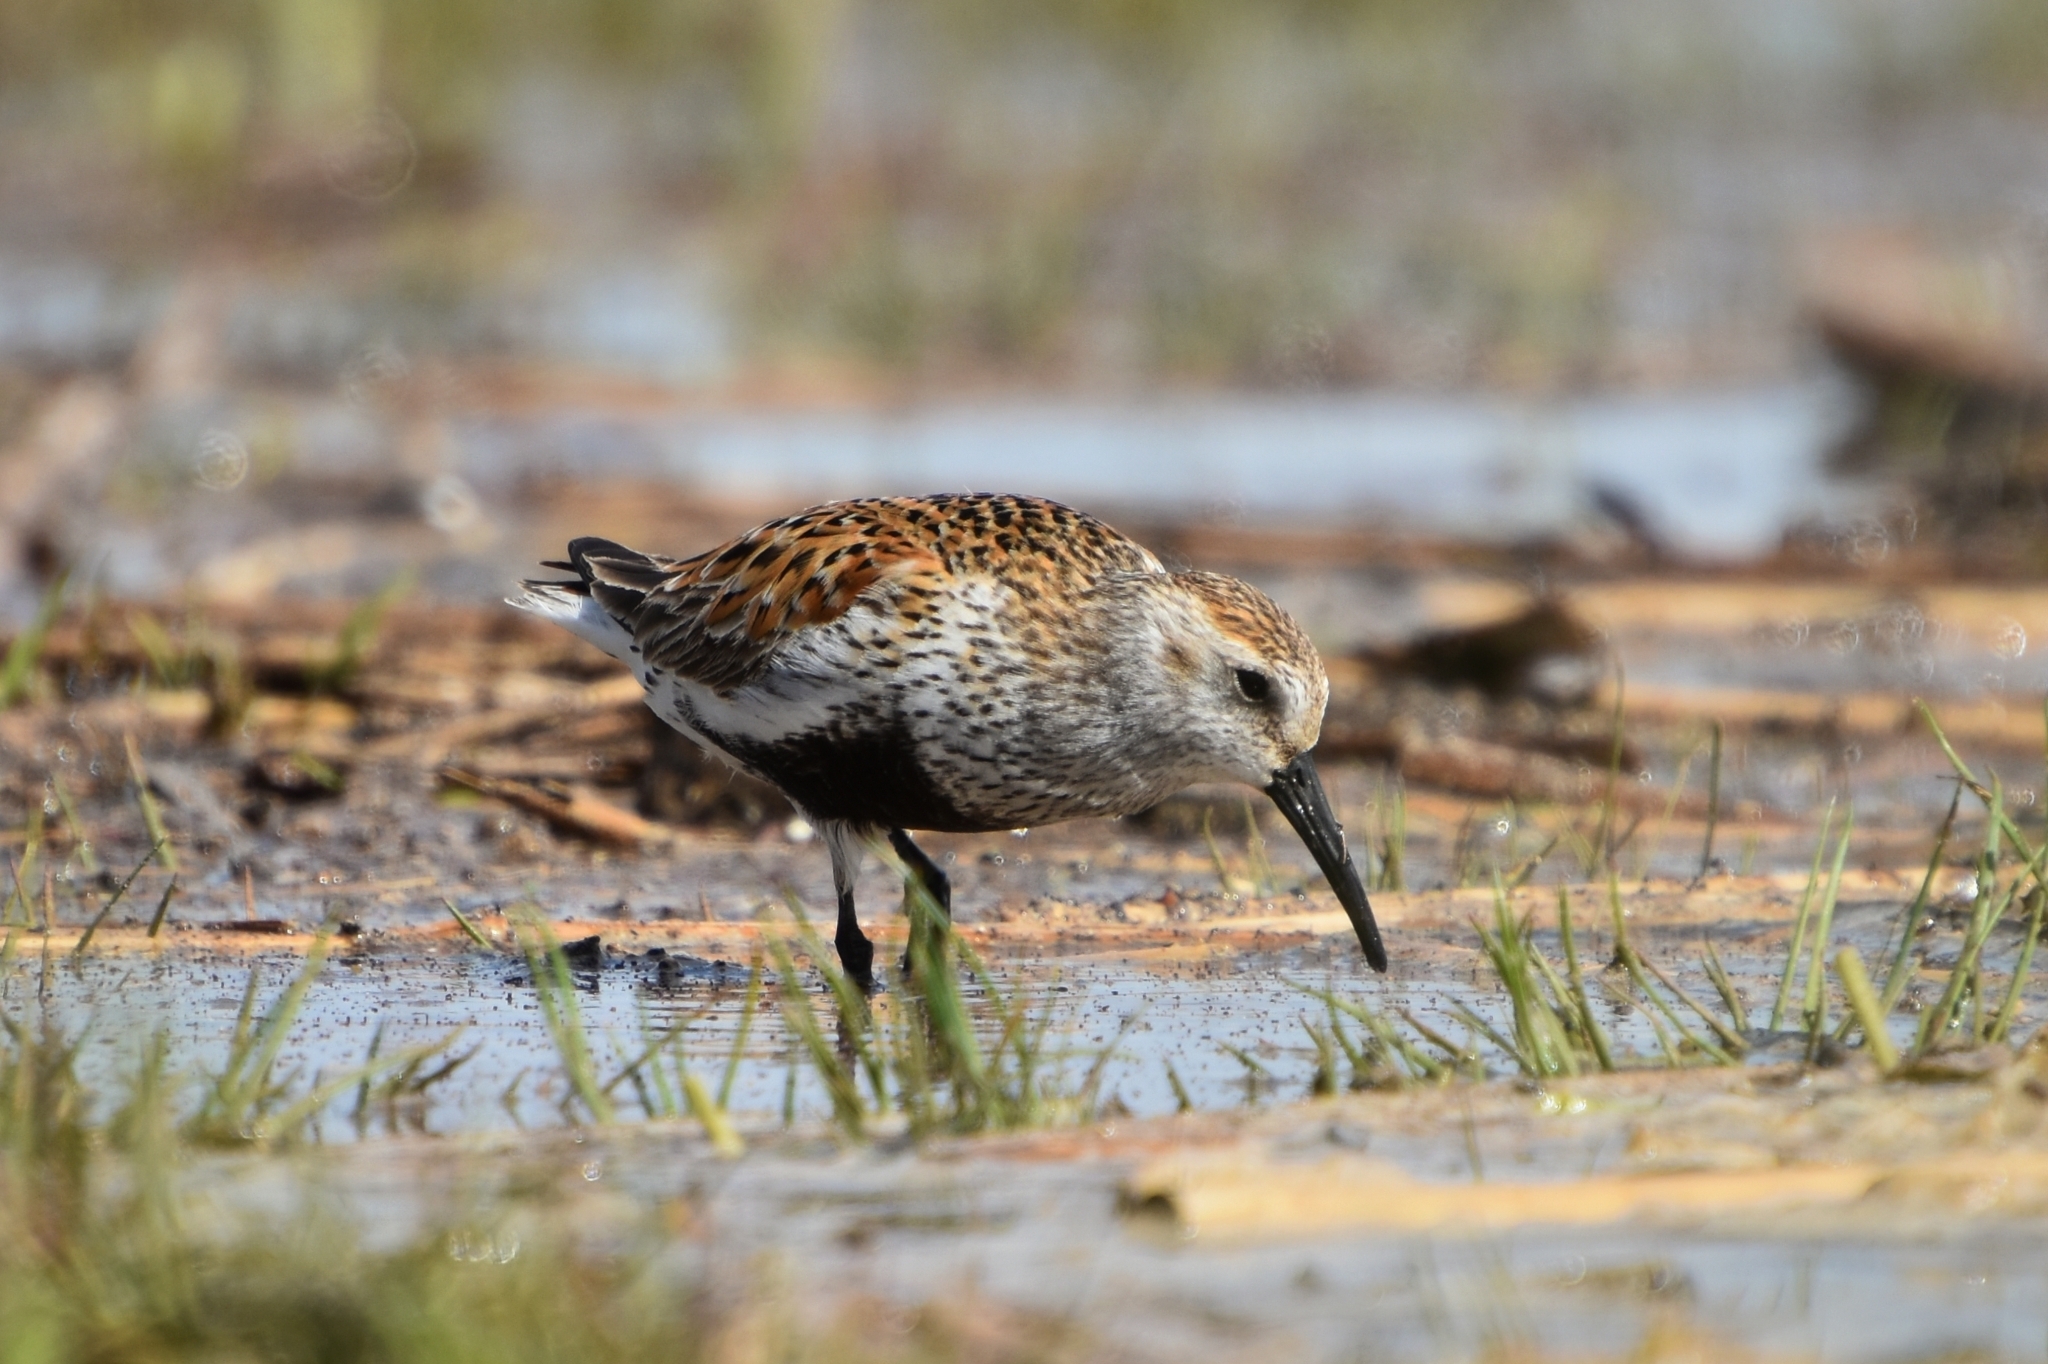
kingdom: Animalia
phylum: Chordata
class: Aves
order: Charadriiformes
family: Scolopacidae
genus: Calidris
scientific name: Calidris alpina
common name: Dunlin
